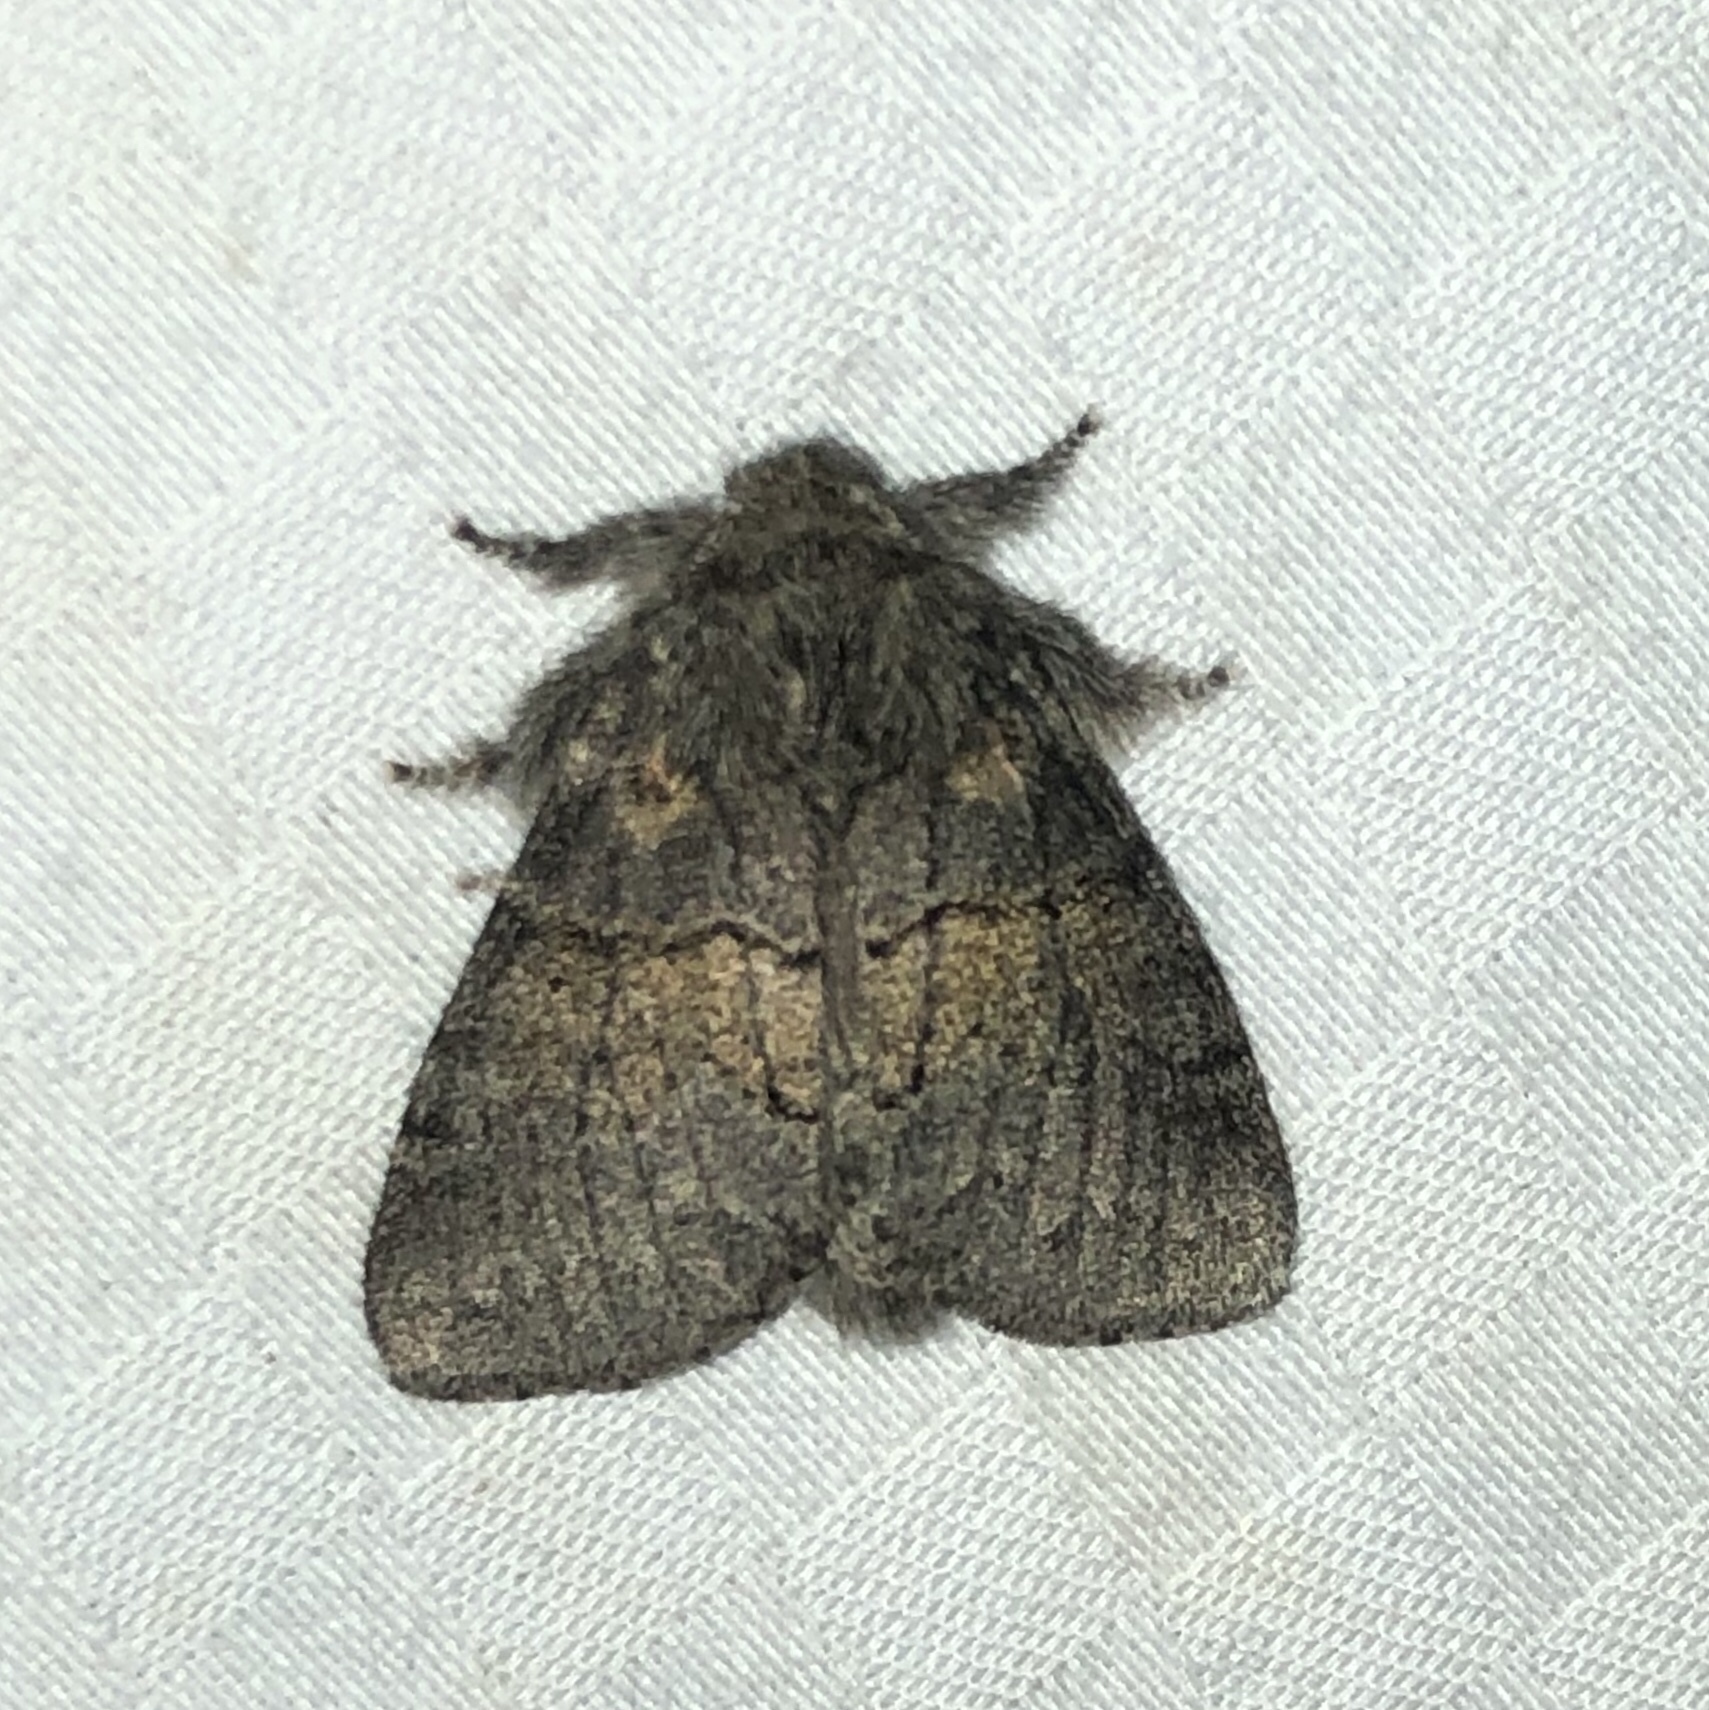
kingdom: Animalia
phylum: Arthropoda
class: Insecta
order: Lepidoptera
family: Notodontidae
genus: Gluphisia
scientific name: Gluphisia septentrionis
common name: Common gluphisia
